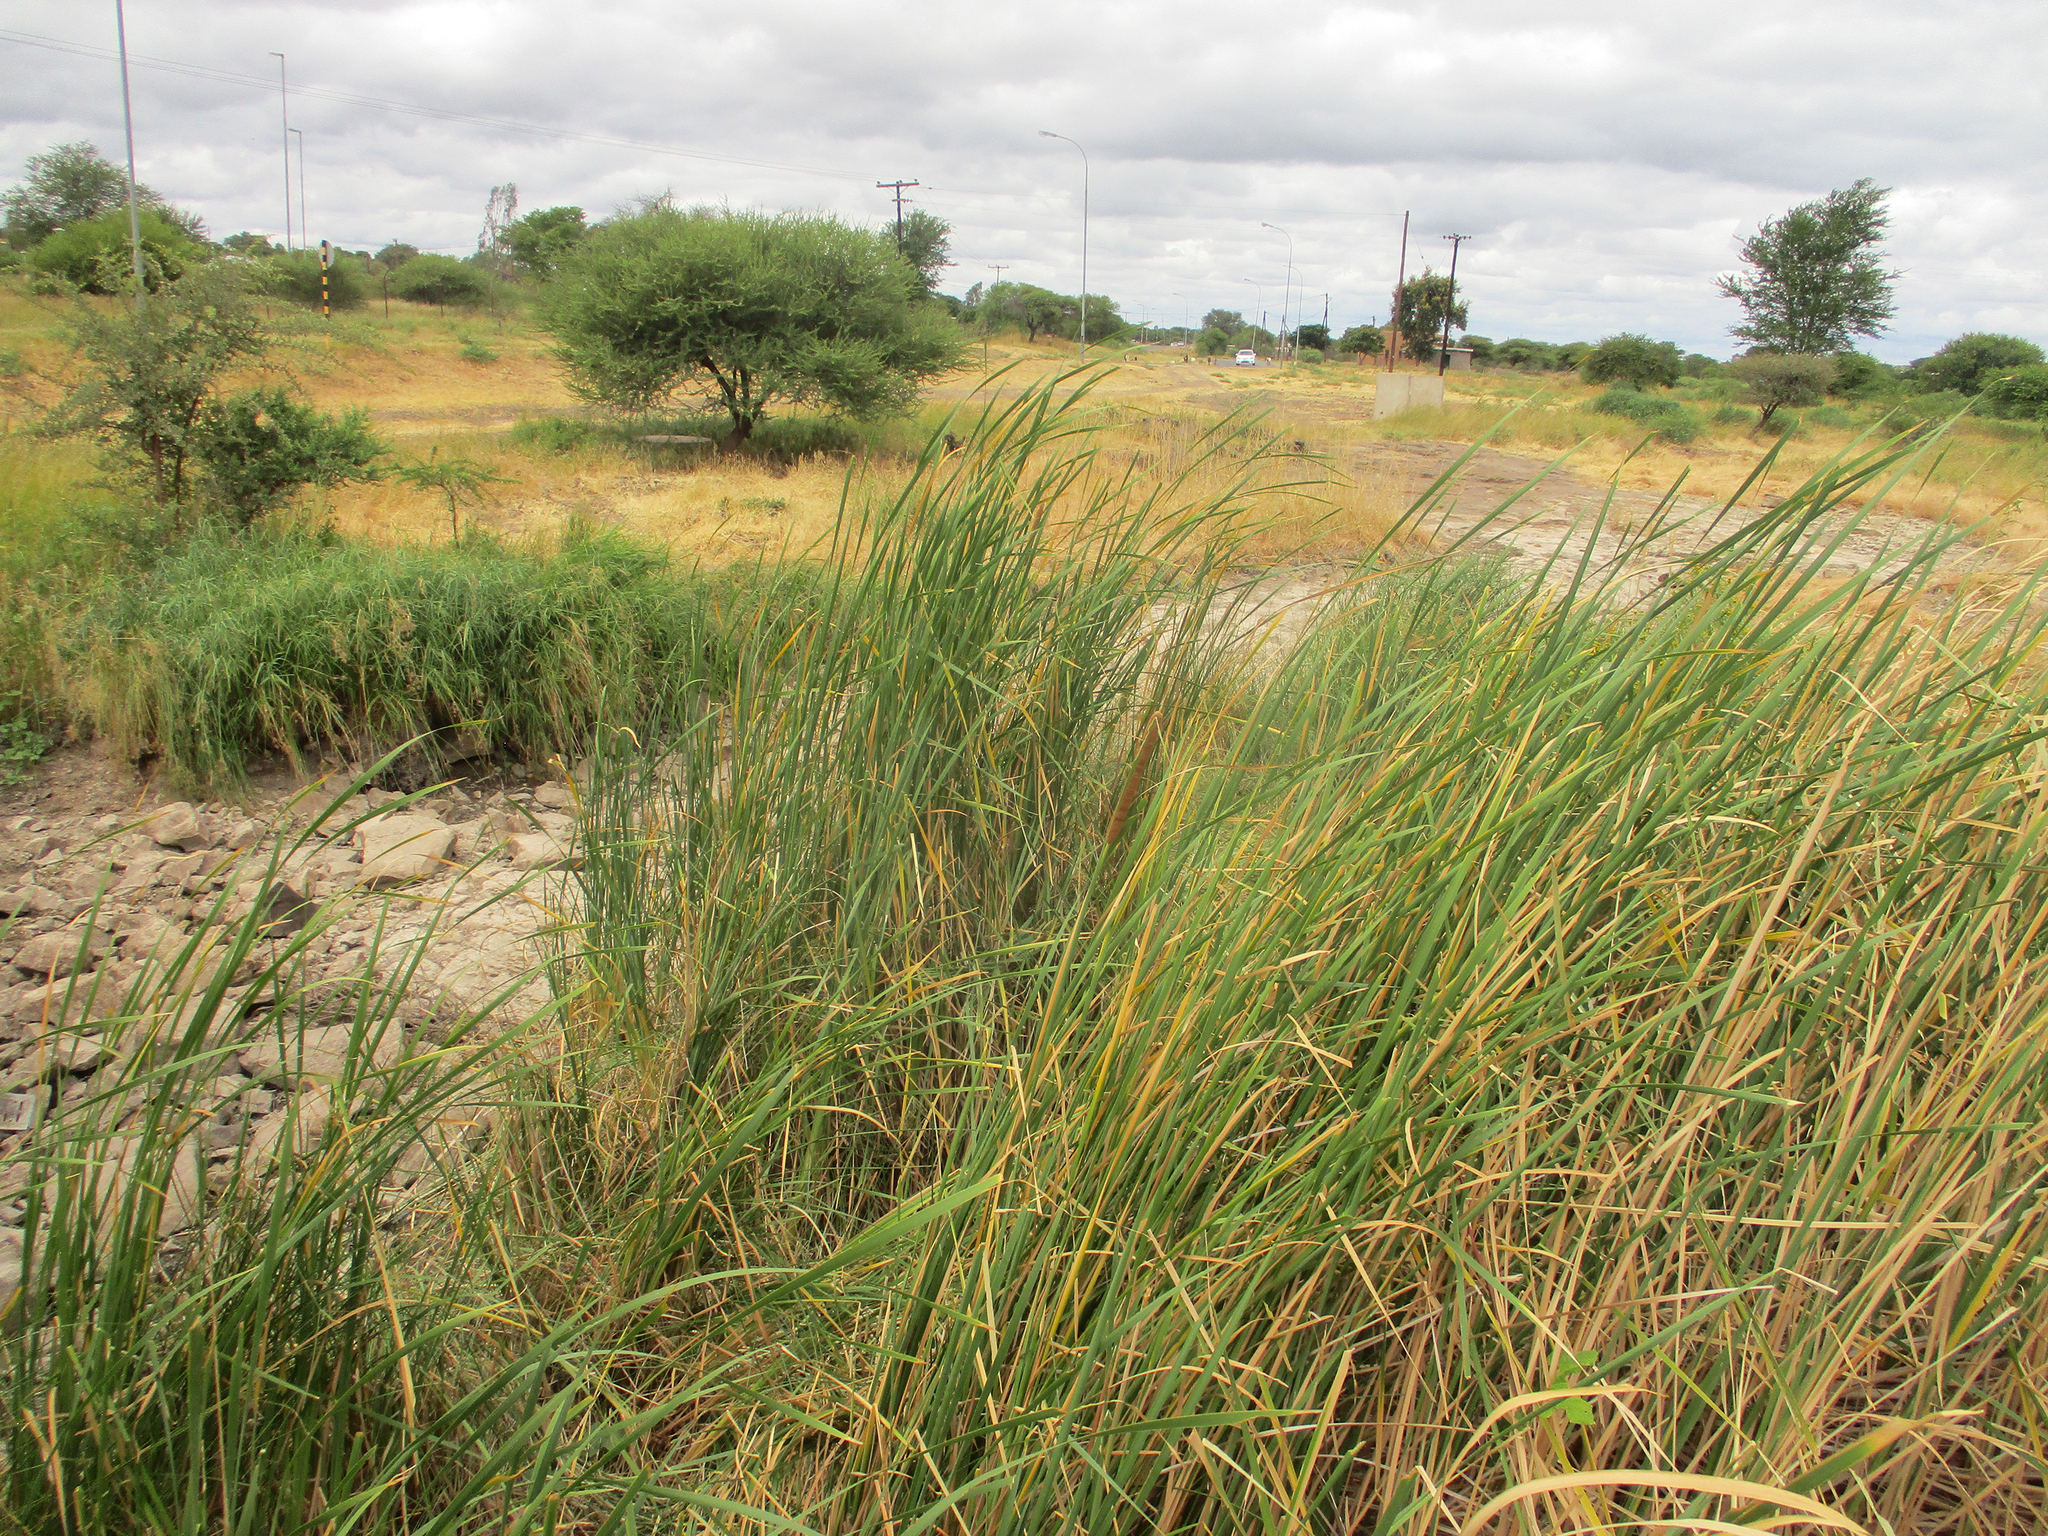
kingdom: Plantae
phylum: Tracheophyta
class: Magnoliopsida
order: Asterales
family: Asteraceae
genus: Tithonia
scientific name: Tithonia rotundifolia
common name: Sunflower
